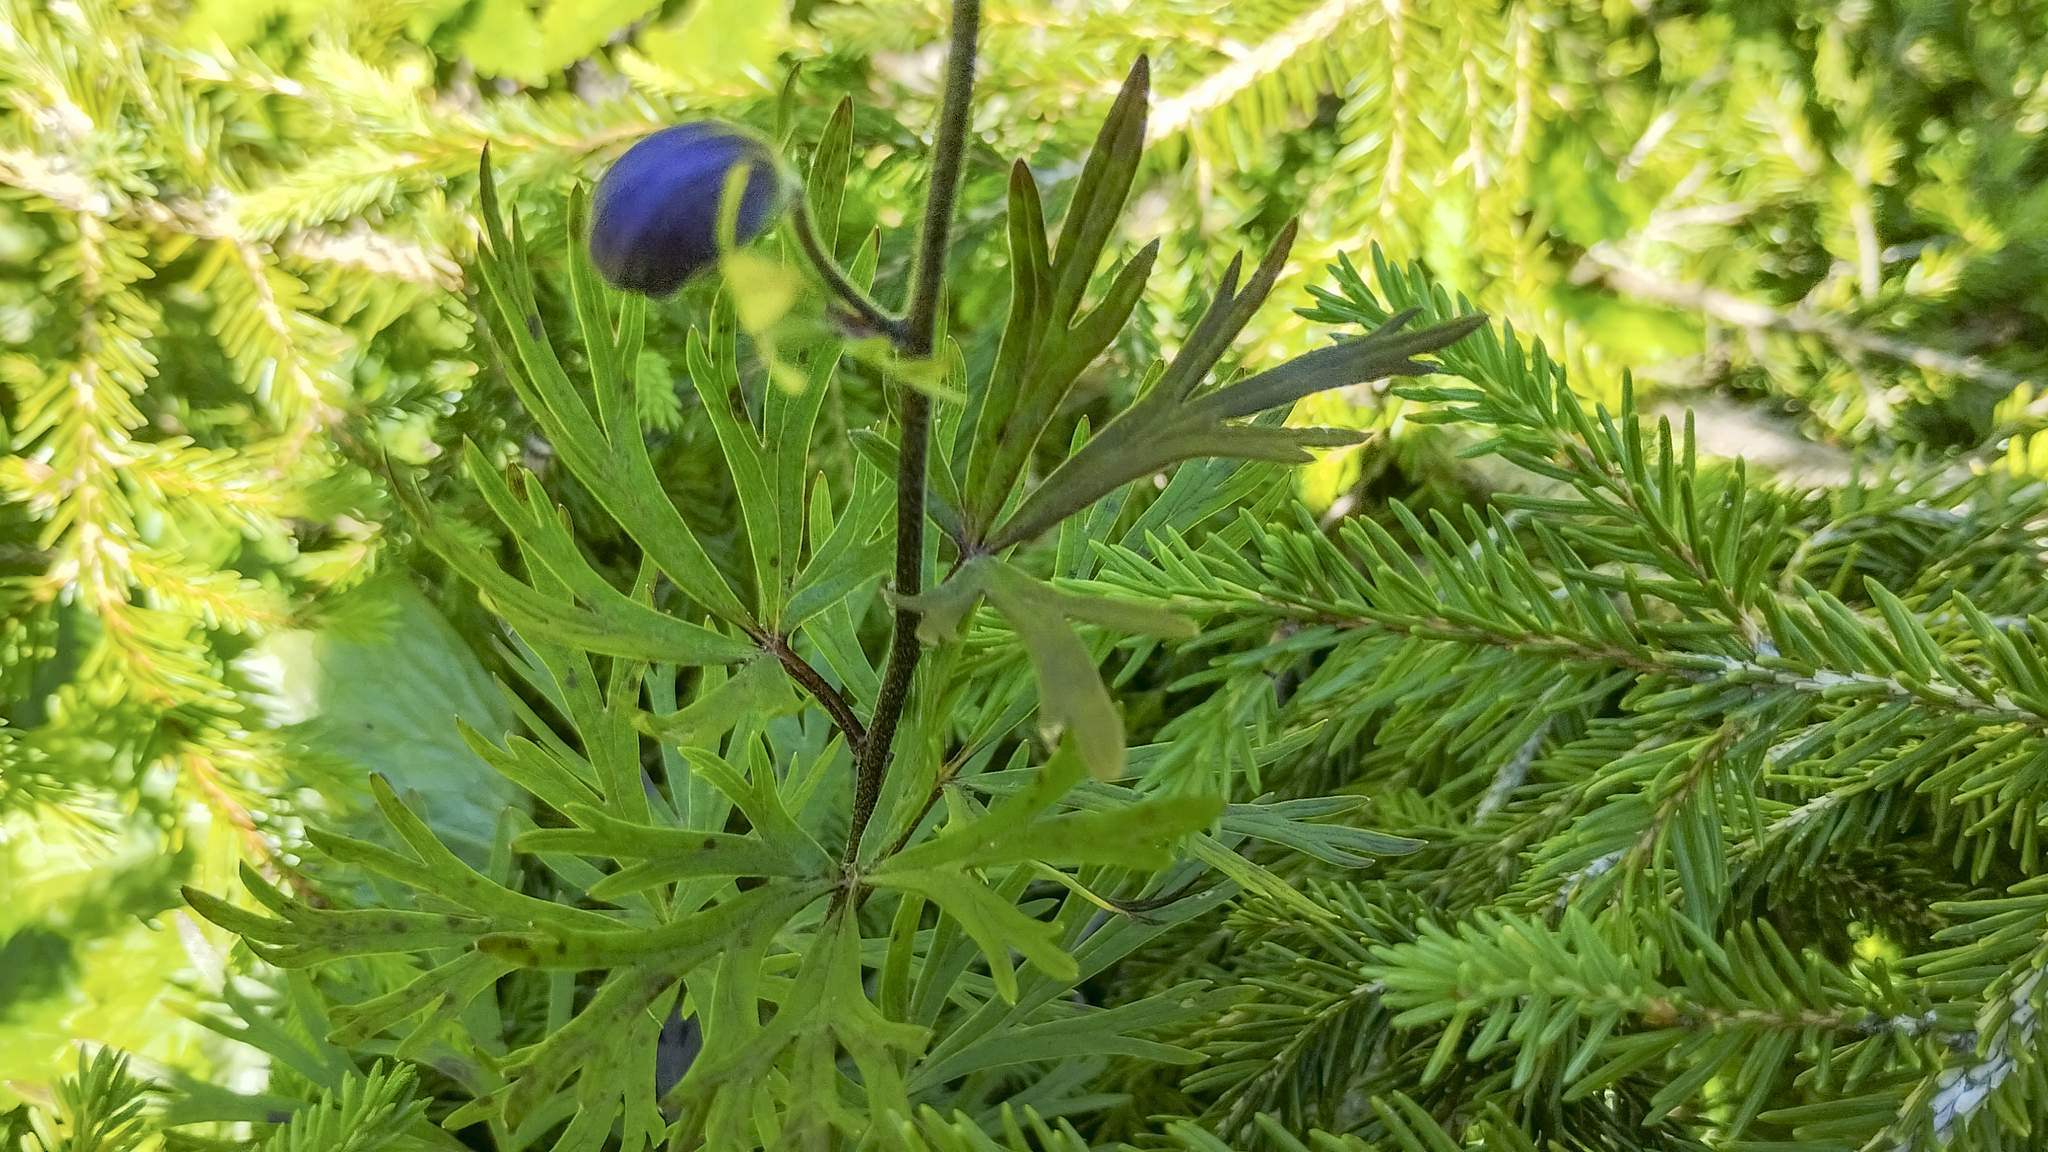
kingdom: Plantae
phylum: Tracheophyta
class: Magnoliopsida
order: Ranunculales
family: Ranunculaceae
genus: Aconitum
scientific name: Aconitum napellus
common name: Garden monkshood
